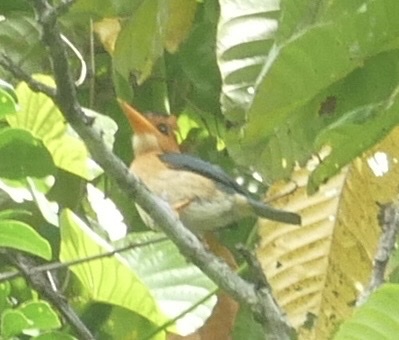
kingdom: Animalia
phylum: Chordata
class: Aves
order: Coraciiformes
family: Alcedinidae
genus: Syma
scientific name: Syma torotoro
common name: Yellow-billed kingfisher
